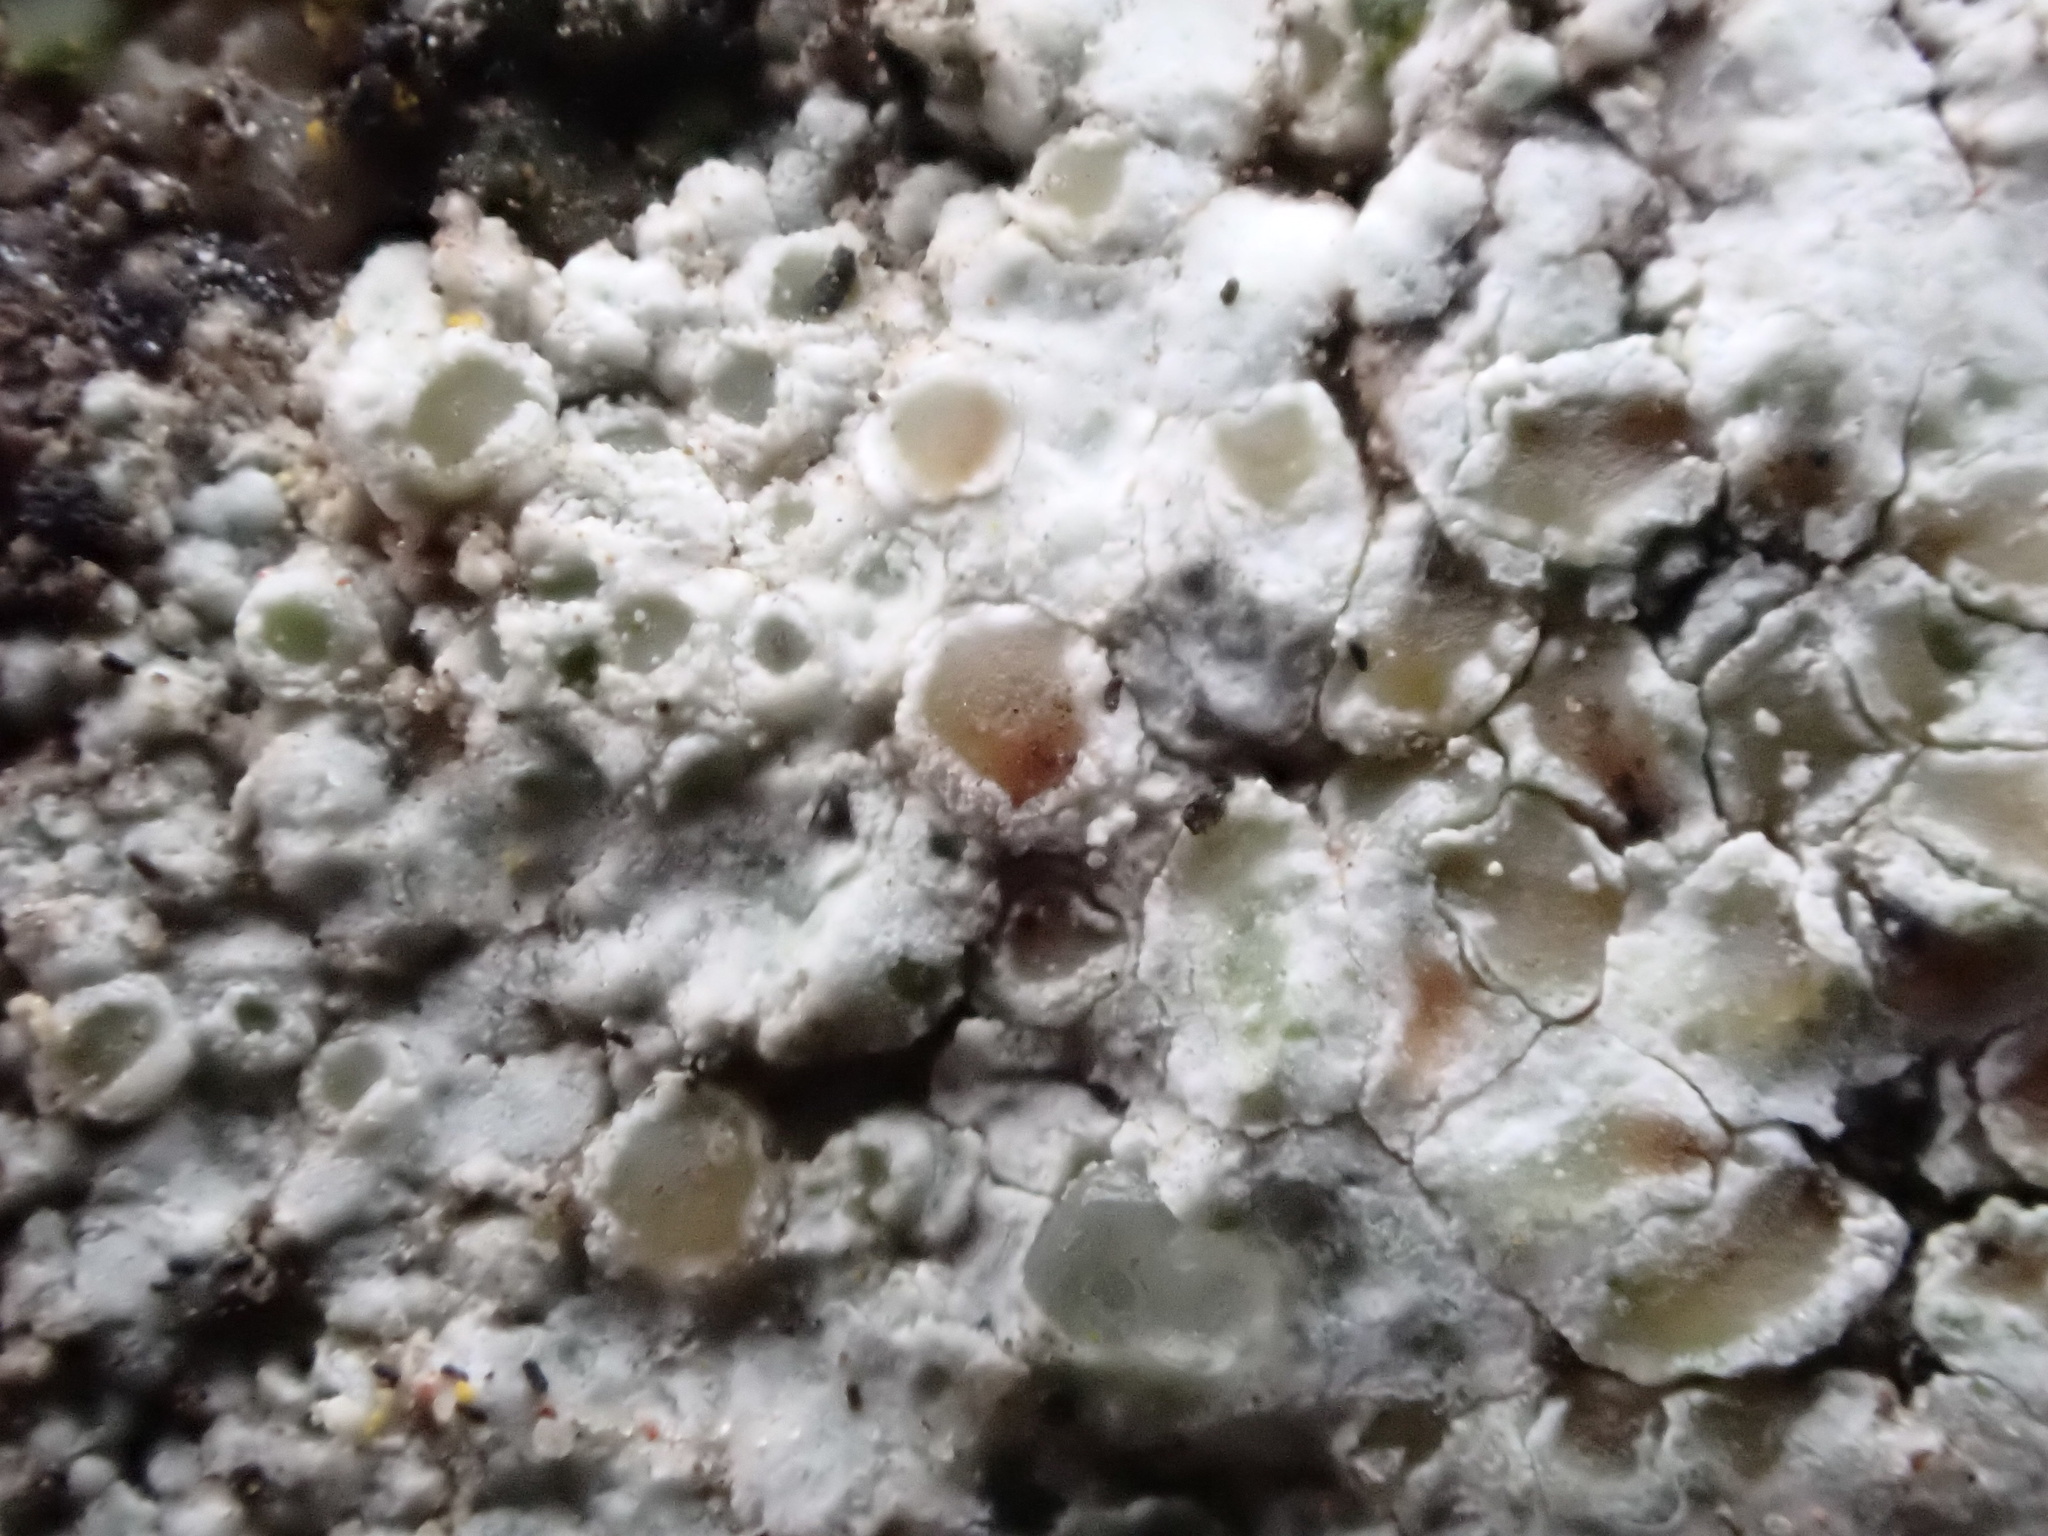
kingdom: Fungi
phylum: Ascomycota
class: Lecanoromycetes
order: Lecanorales
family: Lecanoraceae
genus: Polyozosia
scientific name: Polyozosia albescens
